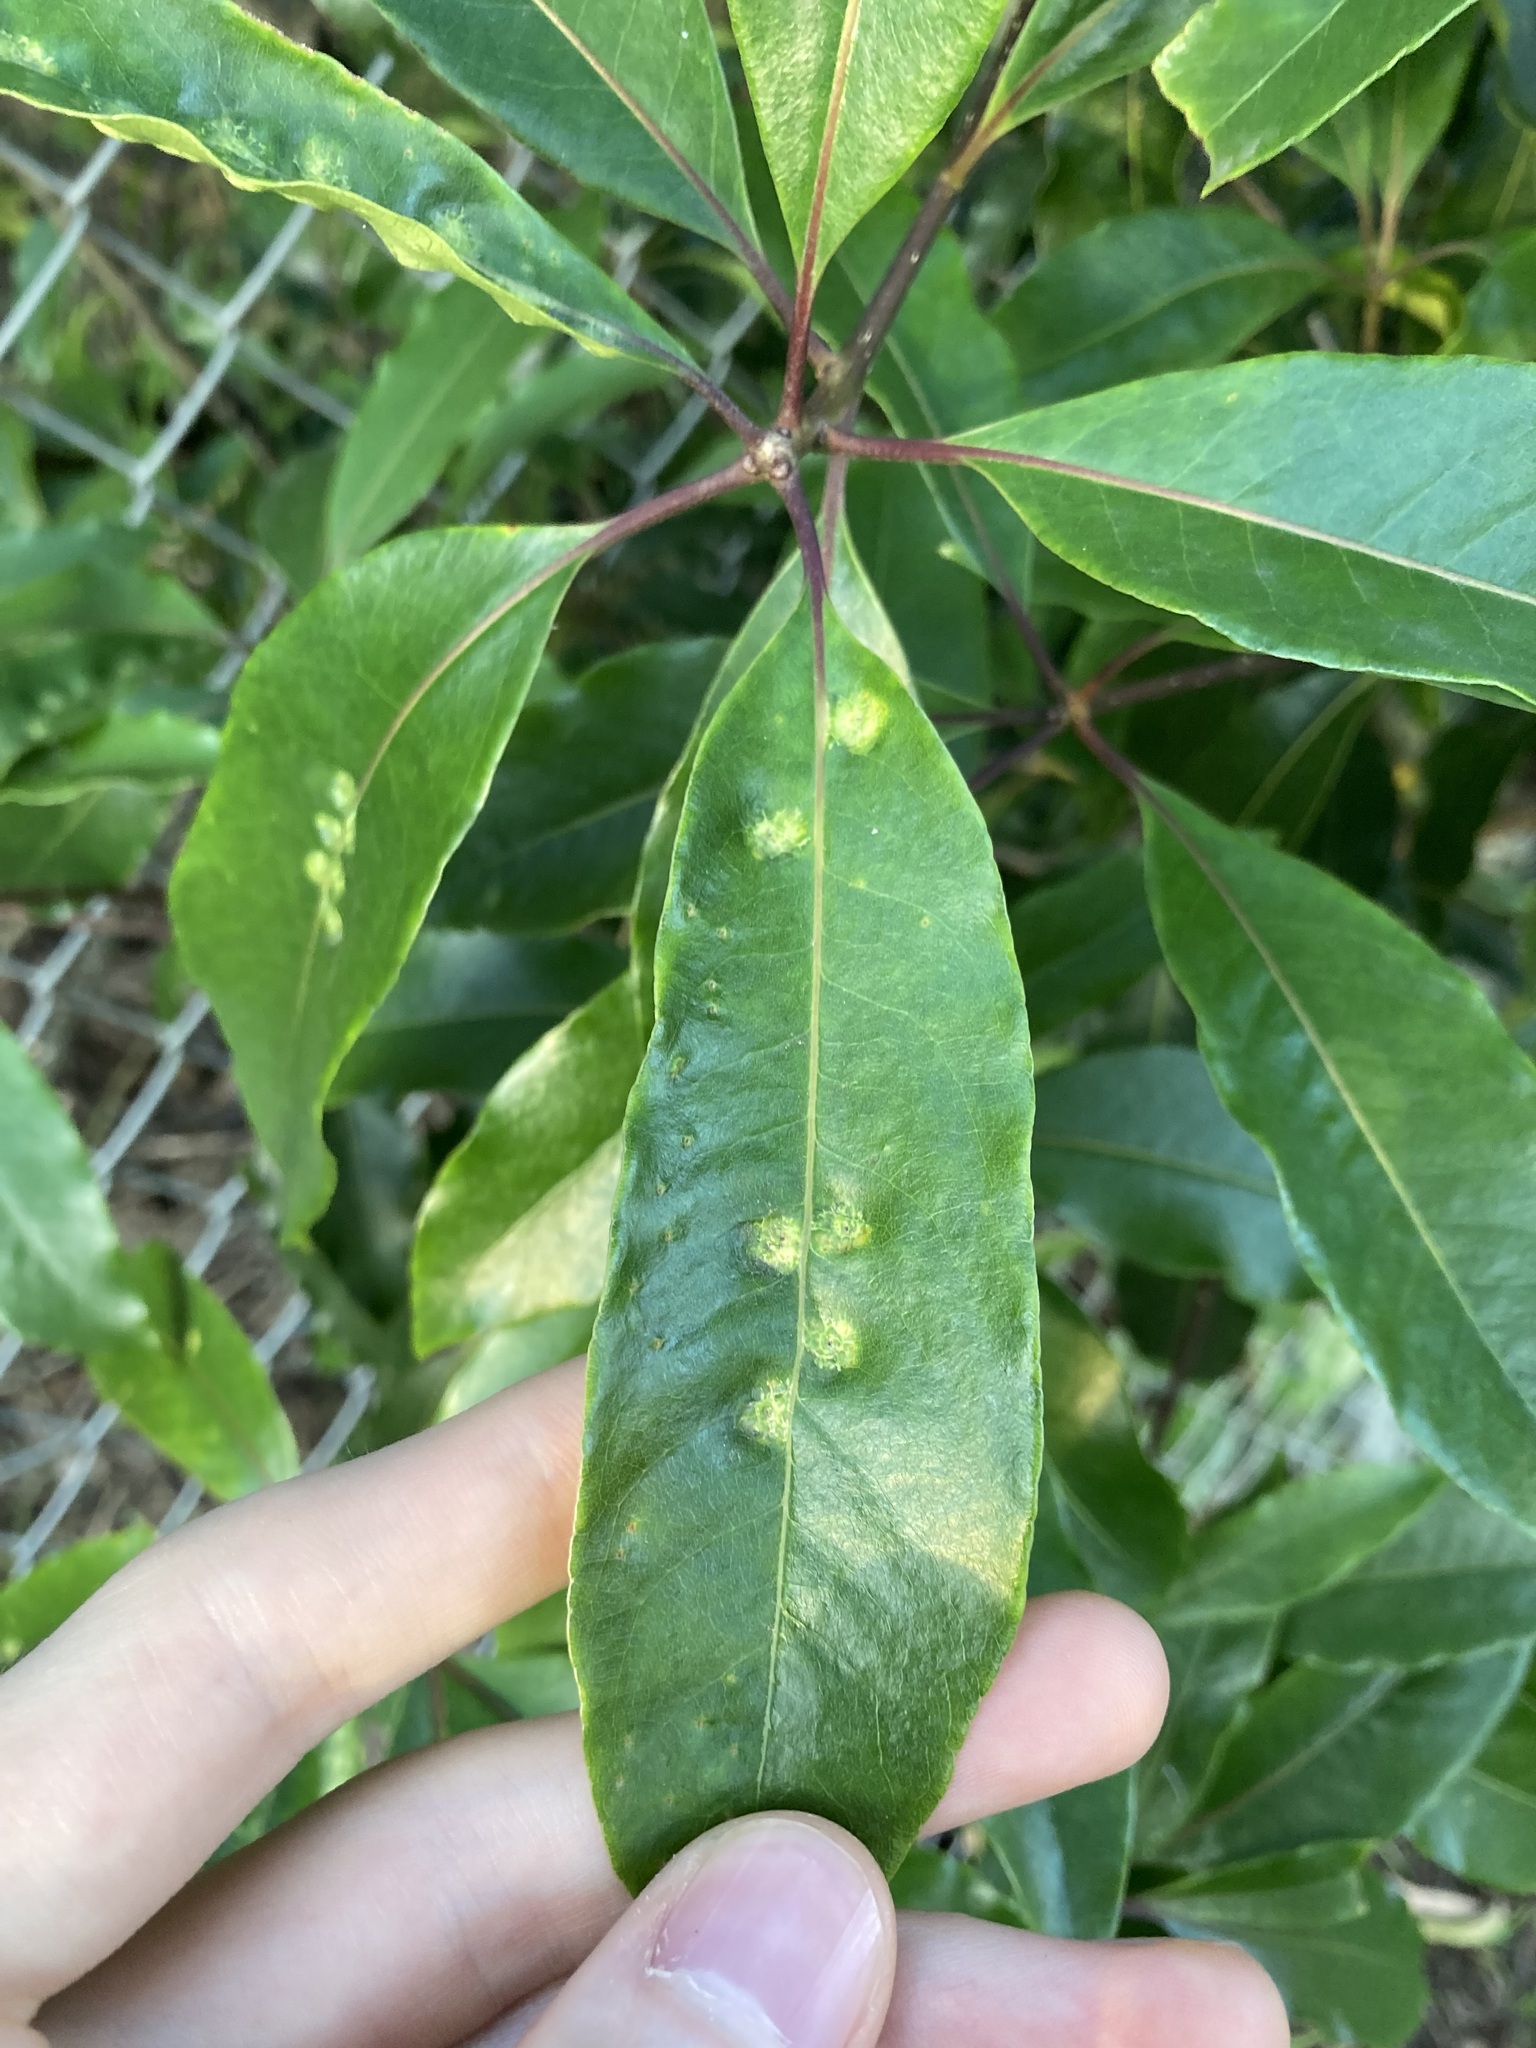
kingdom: Animalia
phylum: Arthropoda
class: Insecta
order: Diptera
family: Agromyzidae
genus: Phytoliriomyza
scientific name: Phytoliriomyza pittosporophylli
